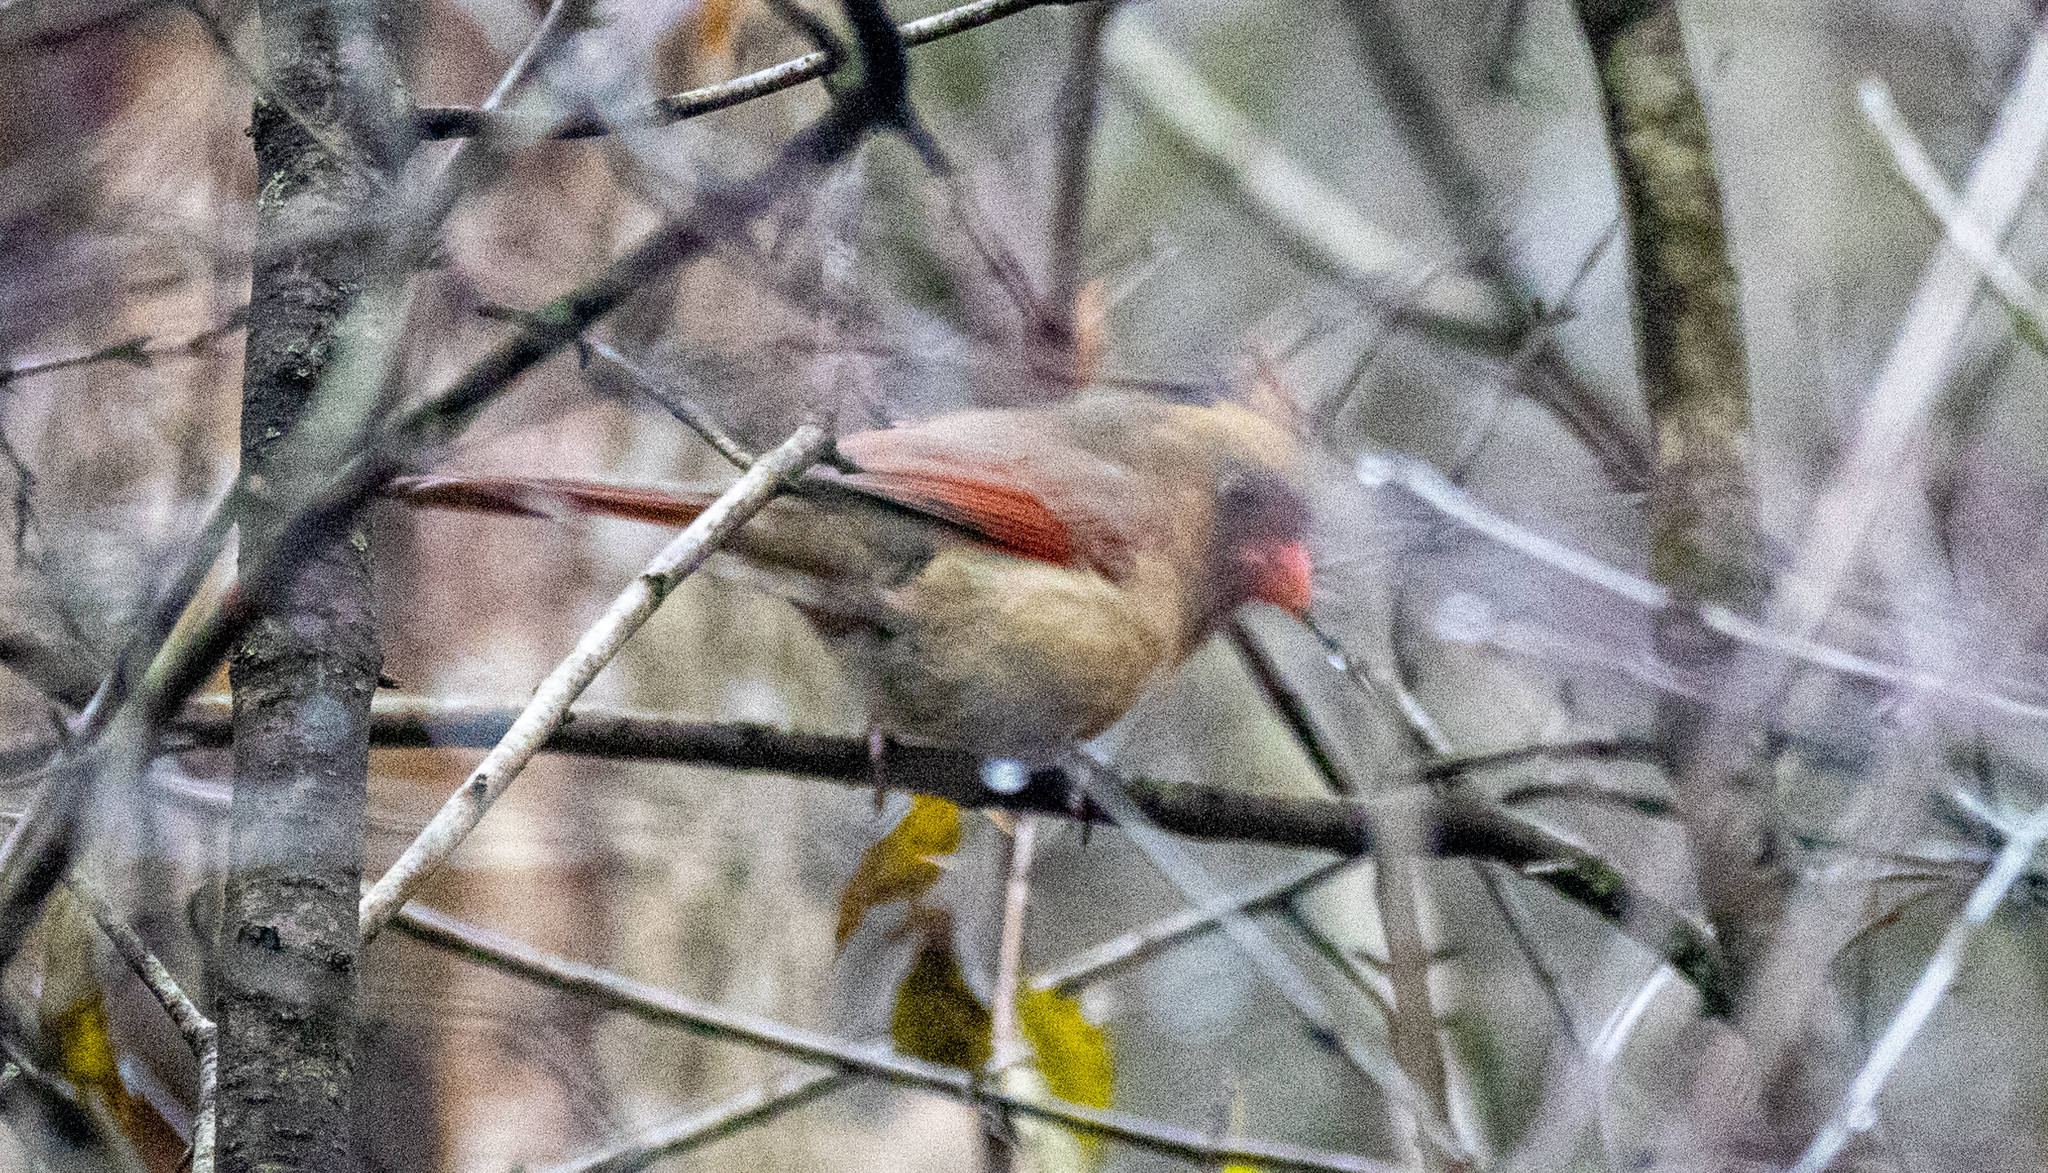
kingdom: Animalia
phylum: Chordata
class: Aves
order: Passeriformes
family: Cardinalidae
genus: Cardinalis
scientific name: Cardinalis cardinalis
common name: Northern cardinal
